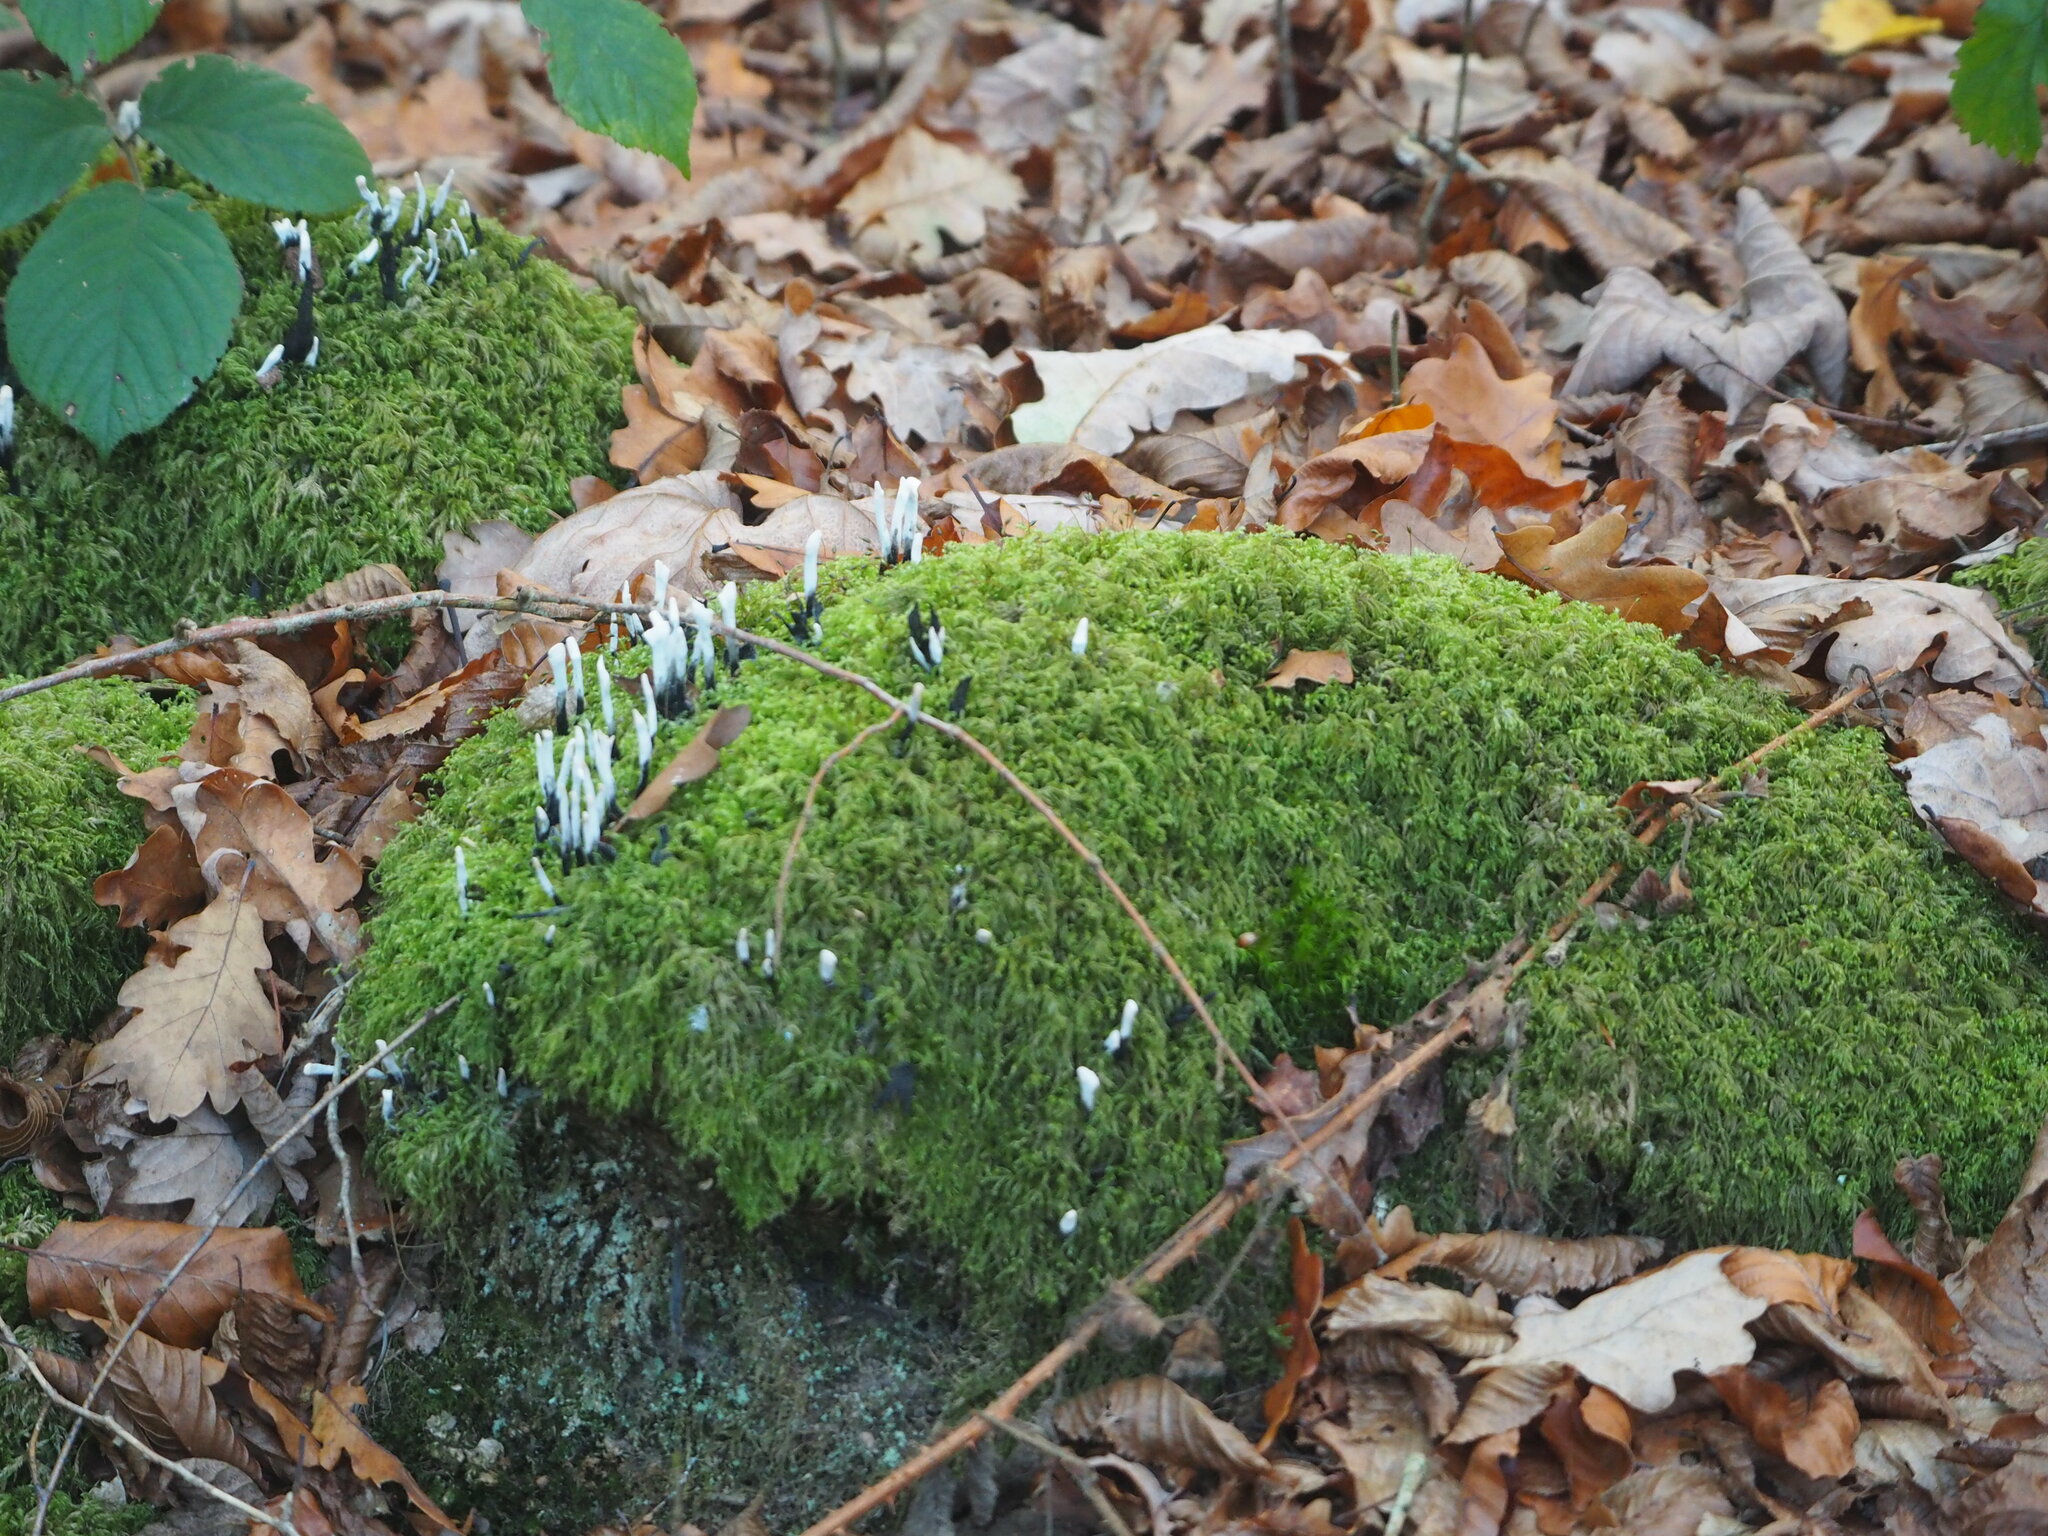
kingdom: Fungi
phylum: Ascomycota
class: Sordariomycetes
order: Xylariales
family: Xylariaceae
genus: Xylaria
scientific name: Xylaria hypoxylon
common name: Candle-snuff fungus
